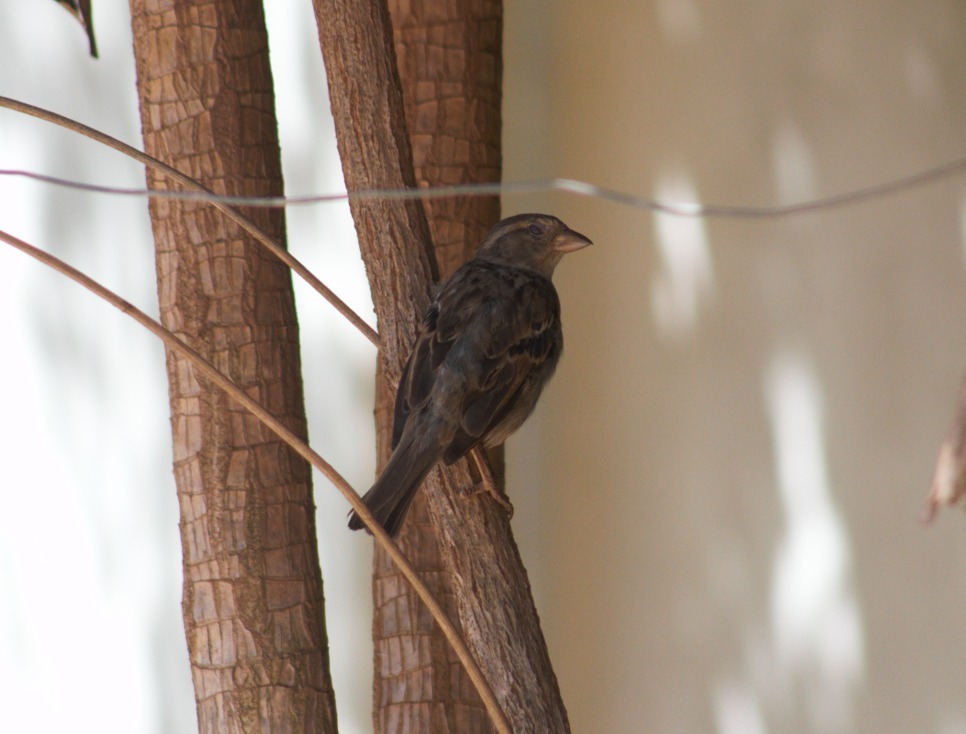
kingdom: Animalia
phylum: Chordata
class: Aves
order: Passeriformes
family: Passeridae
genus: Passer
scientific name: Passer domesticus
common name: House sparrow
